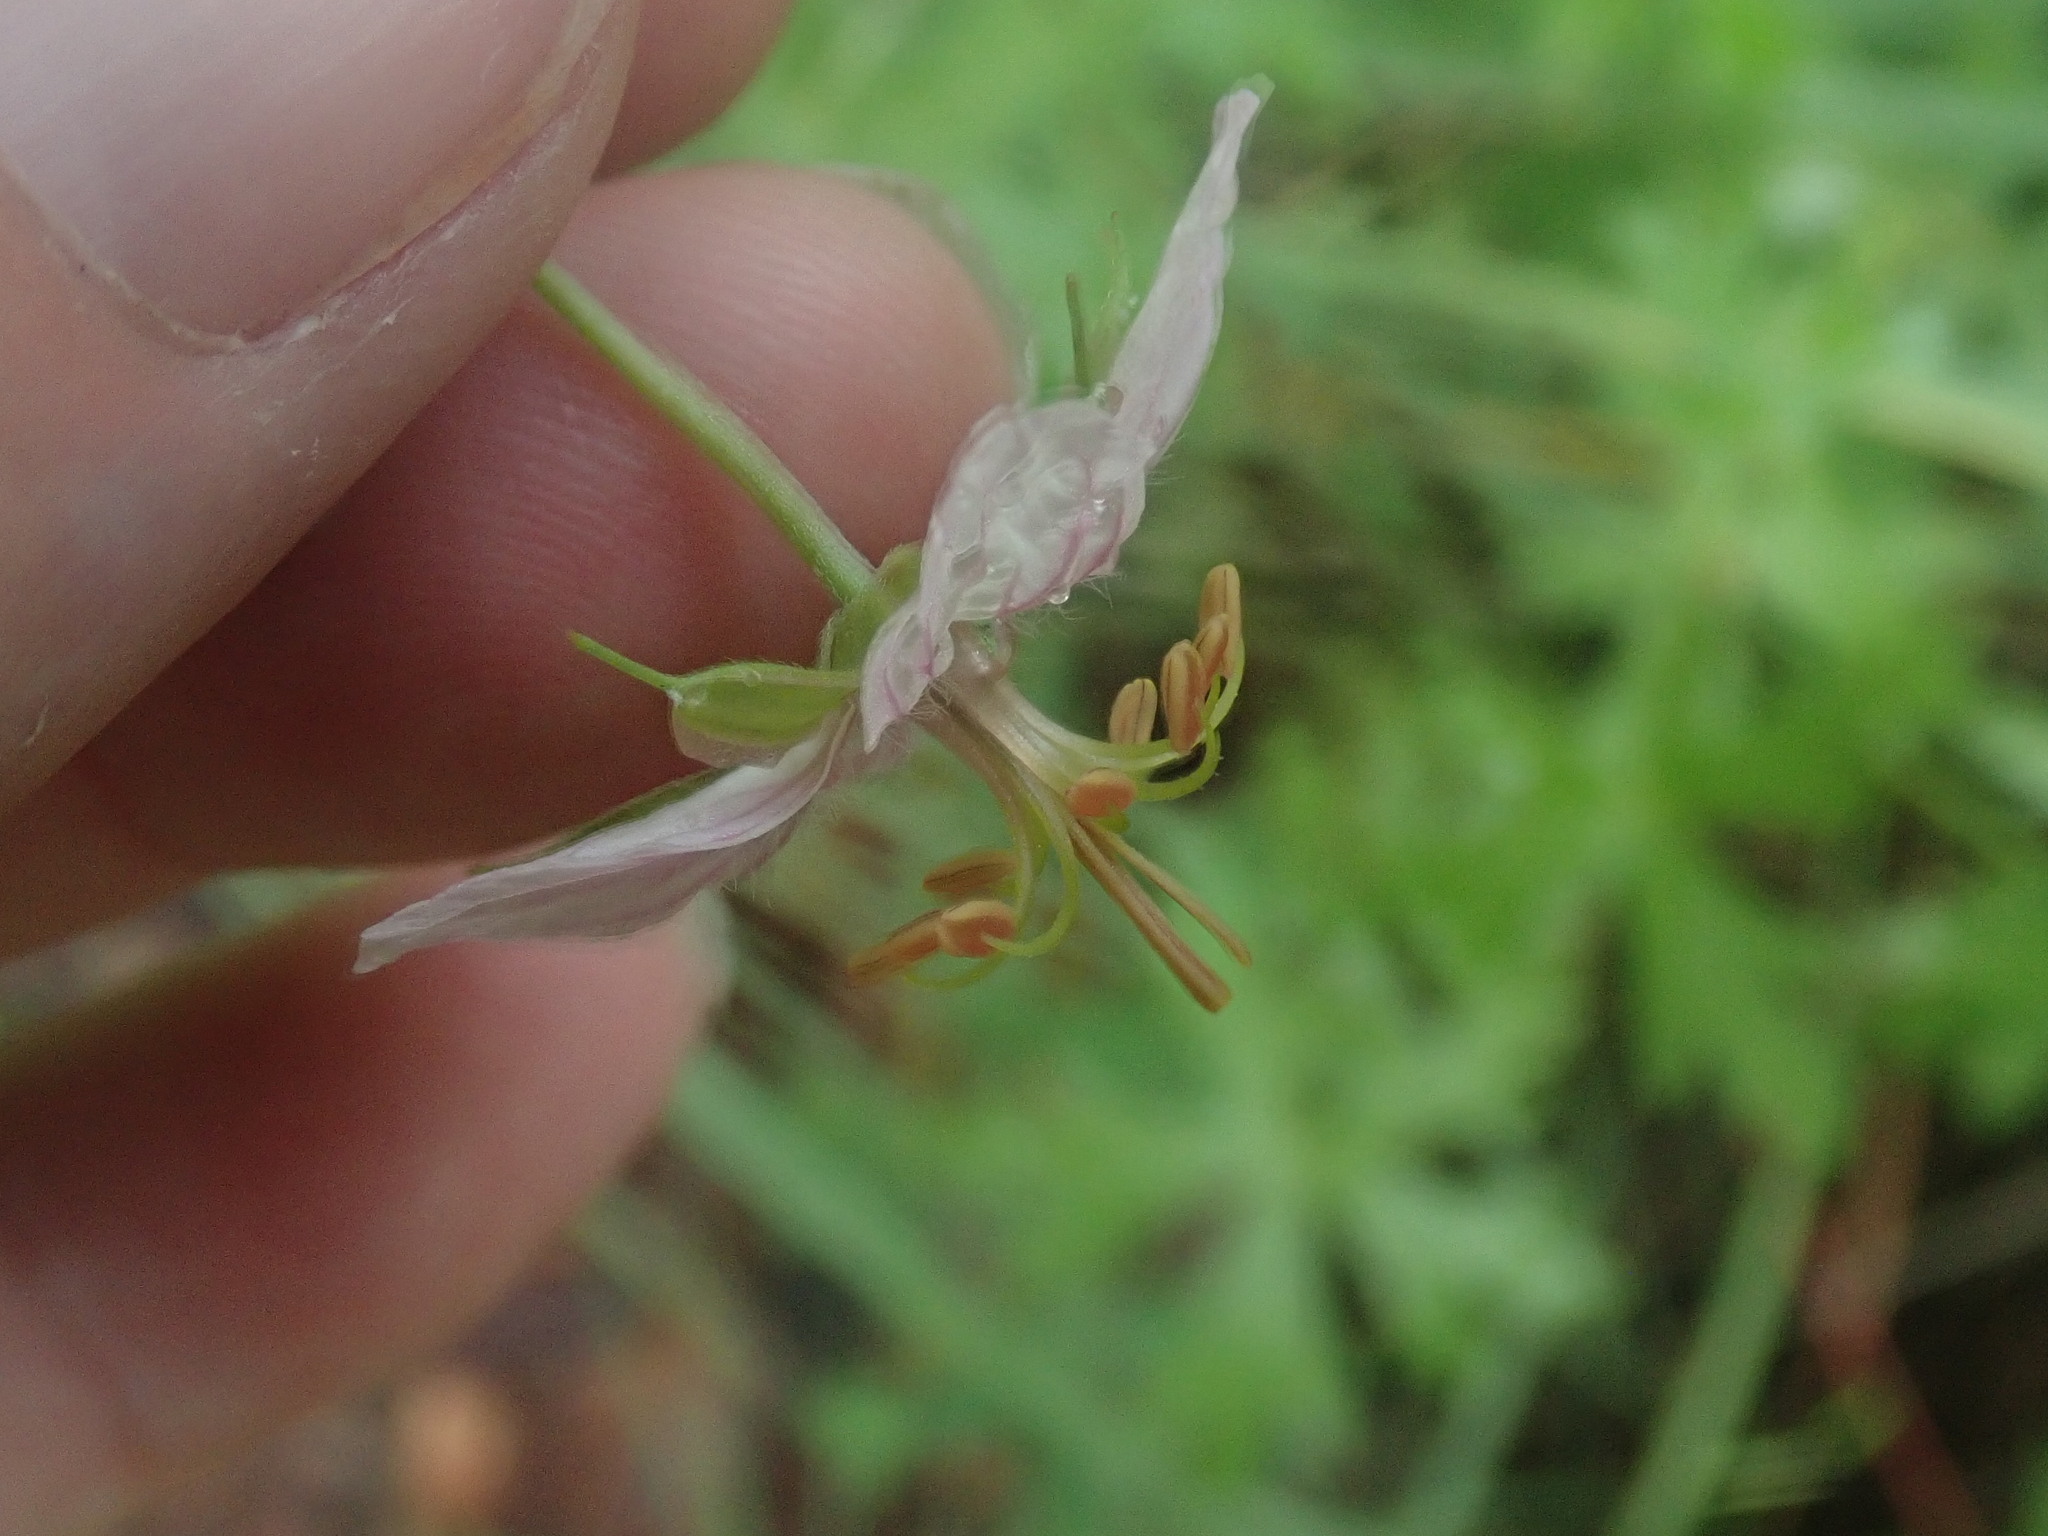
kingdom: Plantae
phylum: Tracheophyta
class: Magnoliopsida
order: Geraniales
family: Geraniaceae
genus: Geranium
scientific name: Geranium caespitosum
